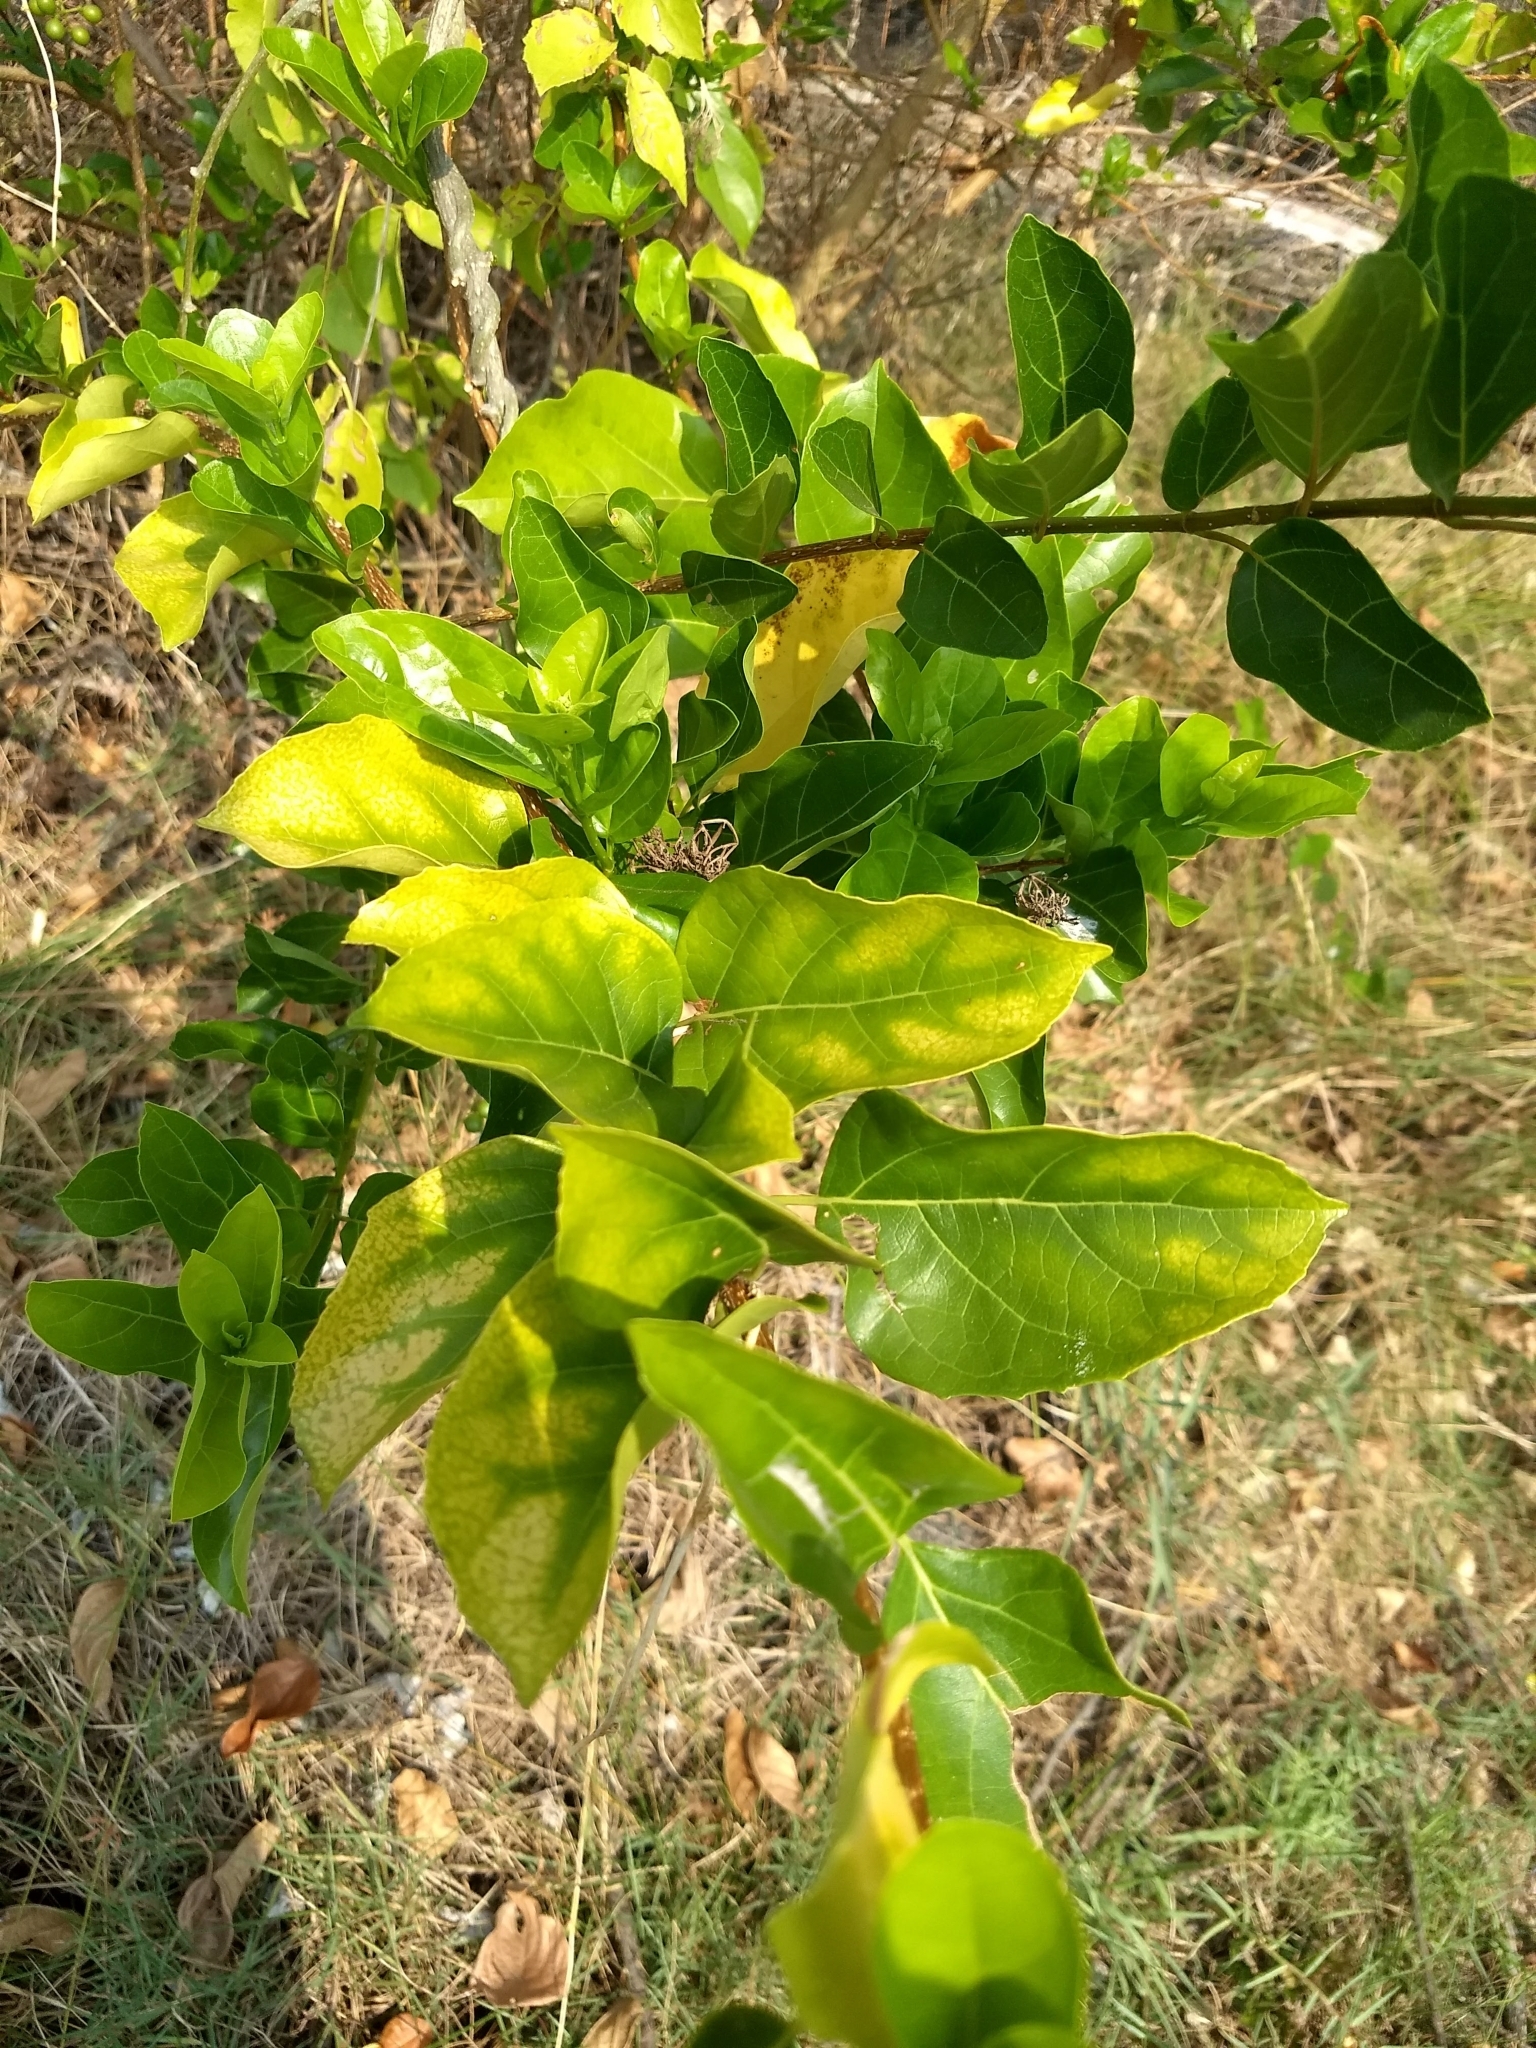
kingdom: Plantae
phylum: Tracheophyta
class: Magnoliopsida
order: Lamiales
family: Lamiaceae
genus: Premna
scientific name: Premna serratifolia
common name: Bastard guelder
